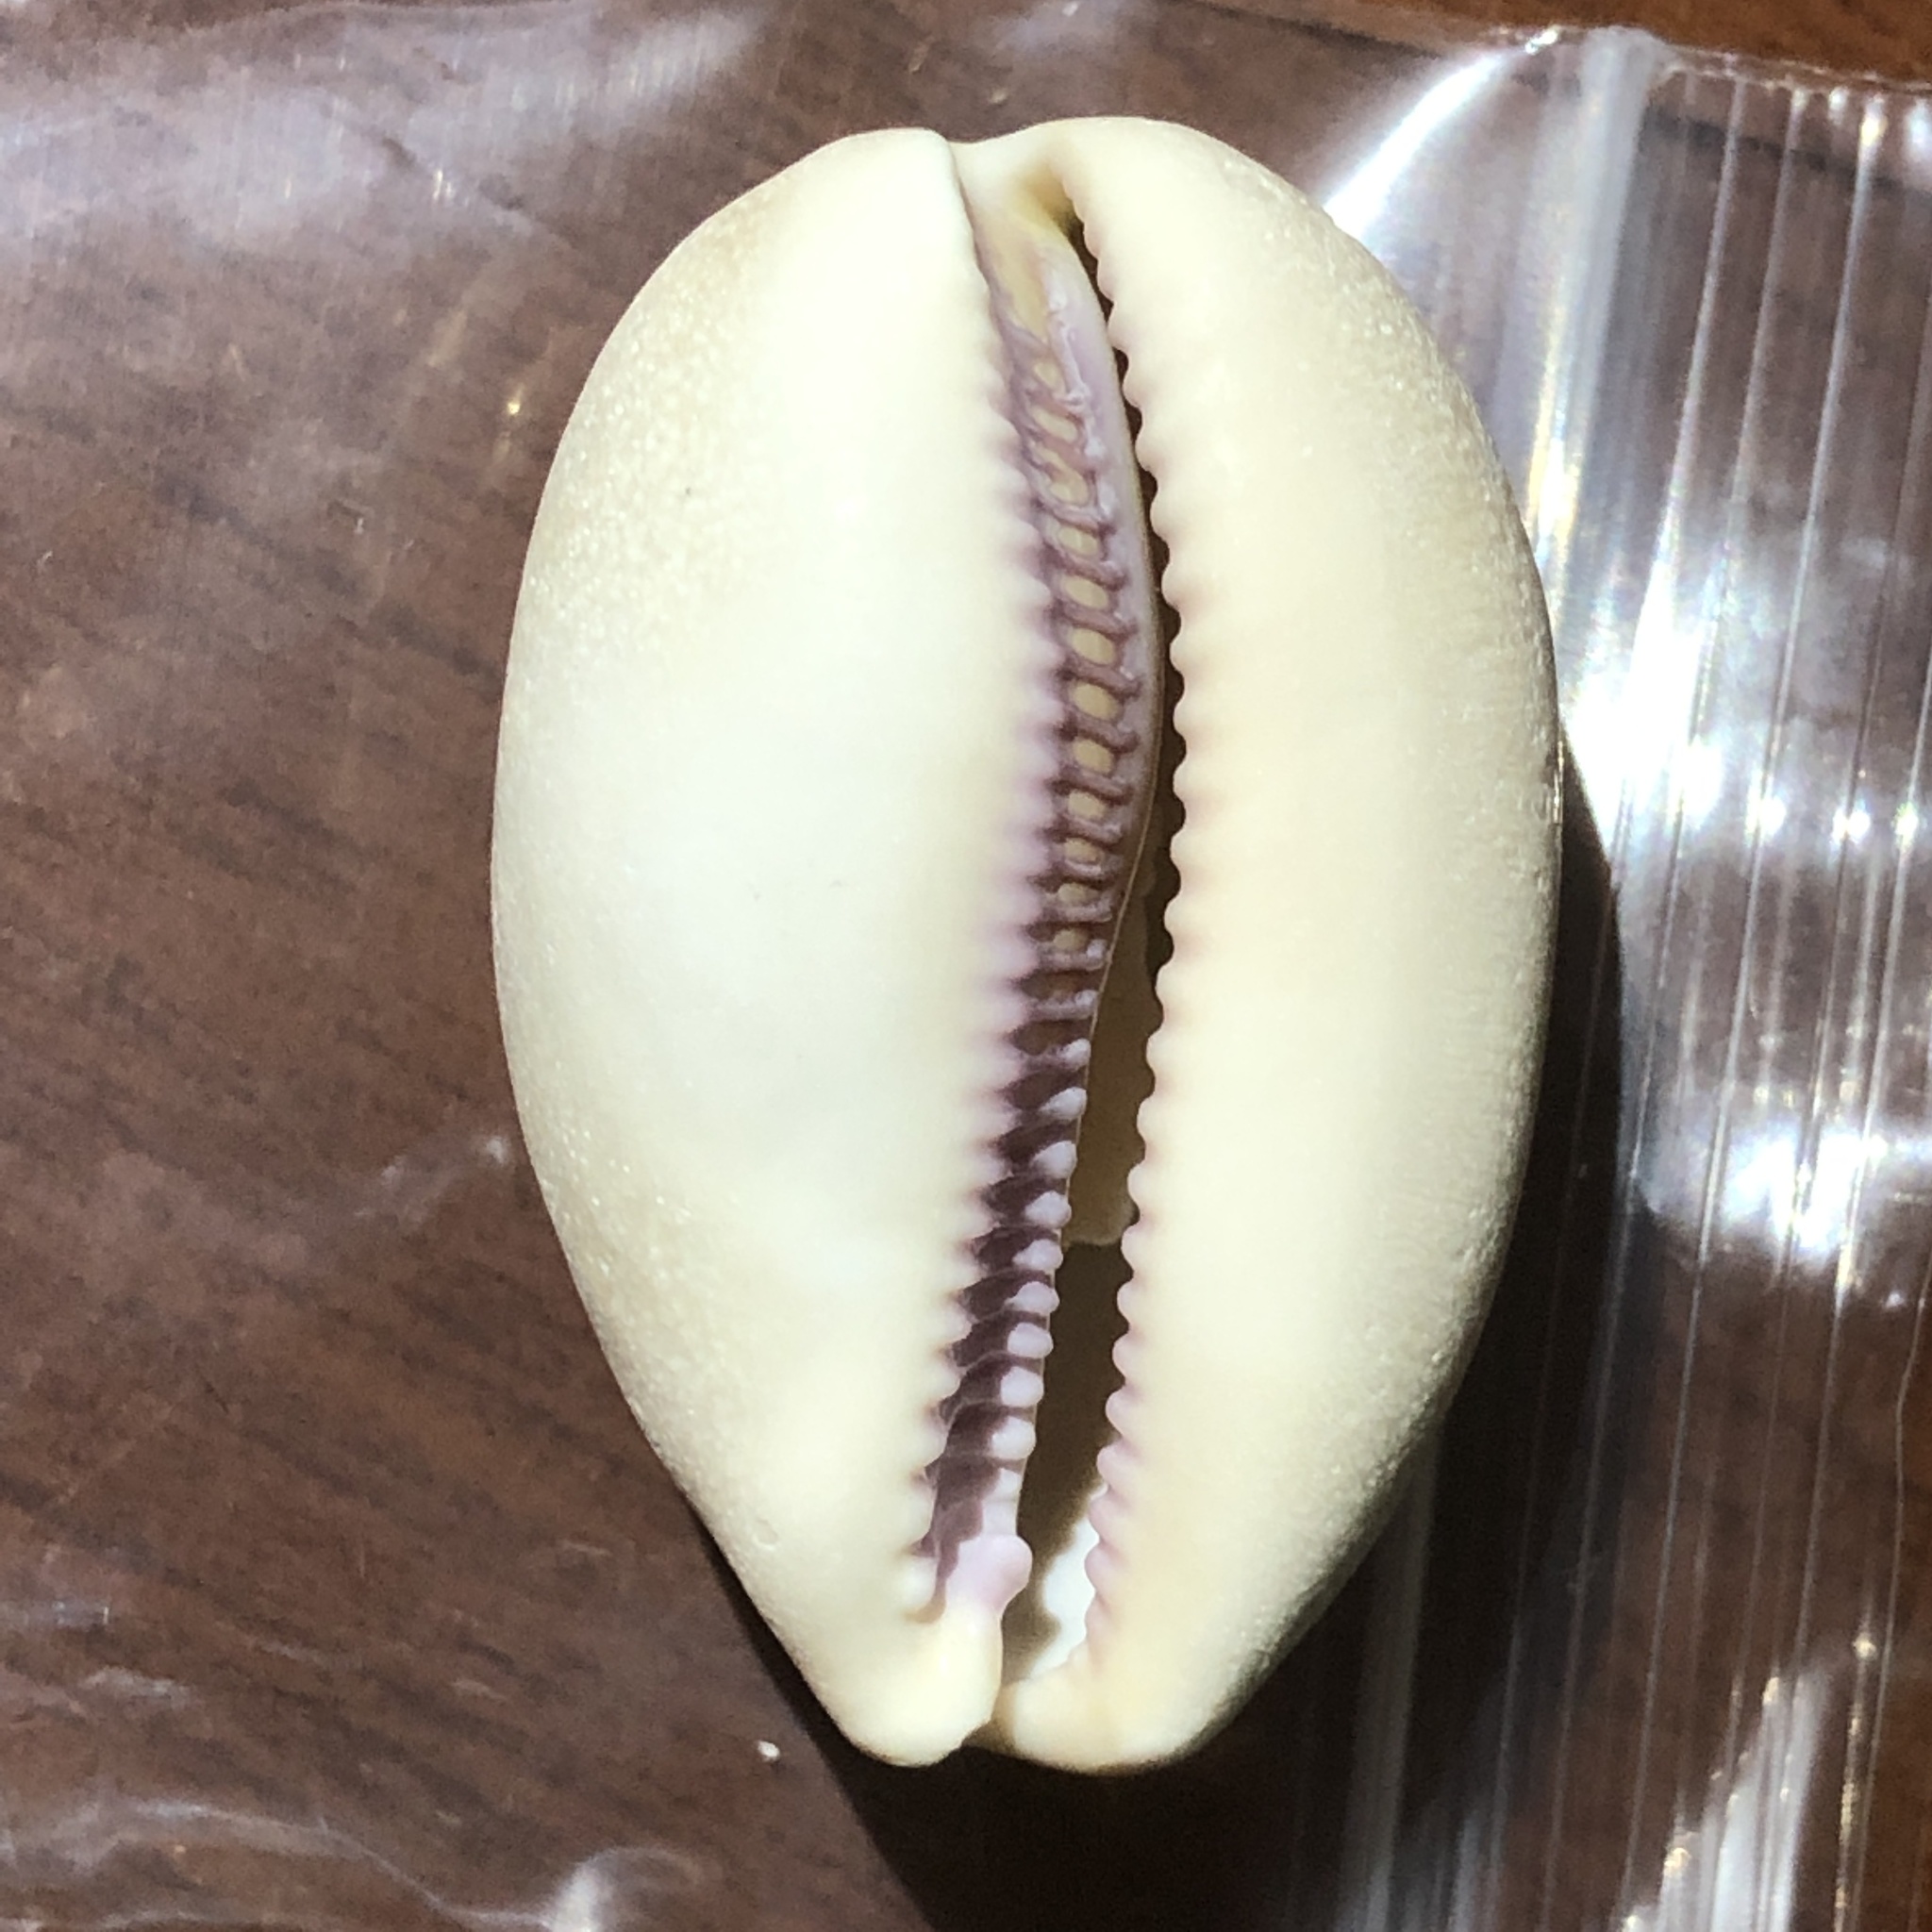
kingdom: Animalia
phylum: Mollusca
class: Gastropoda
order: Littorinimorpha
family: Cypraeidae
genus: Lyncina
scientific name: Lyncina carneola
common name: Purple-mouthed cowry
